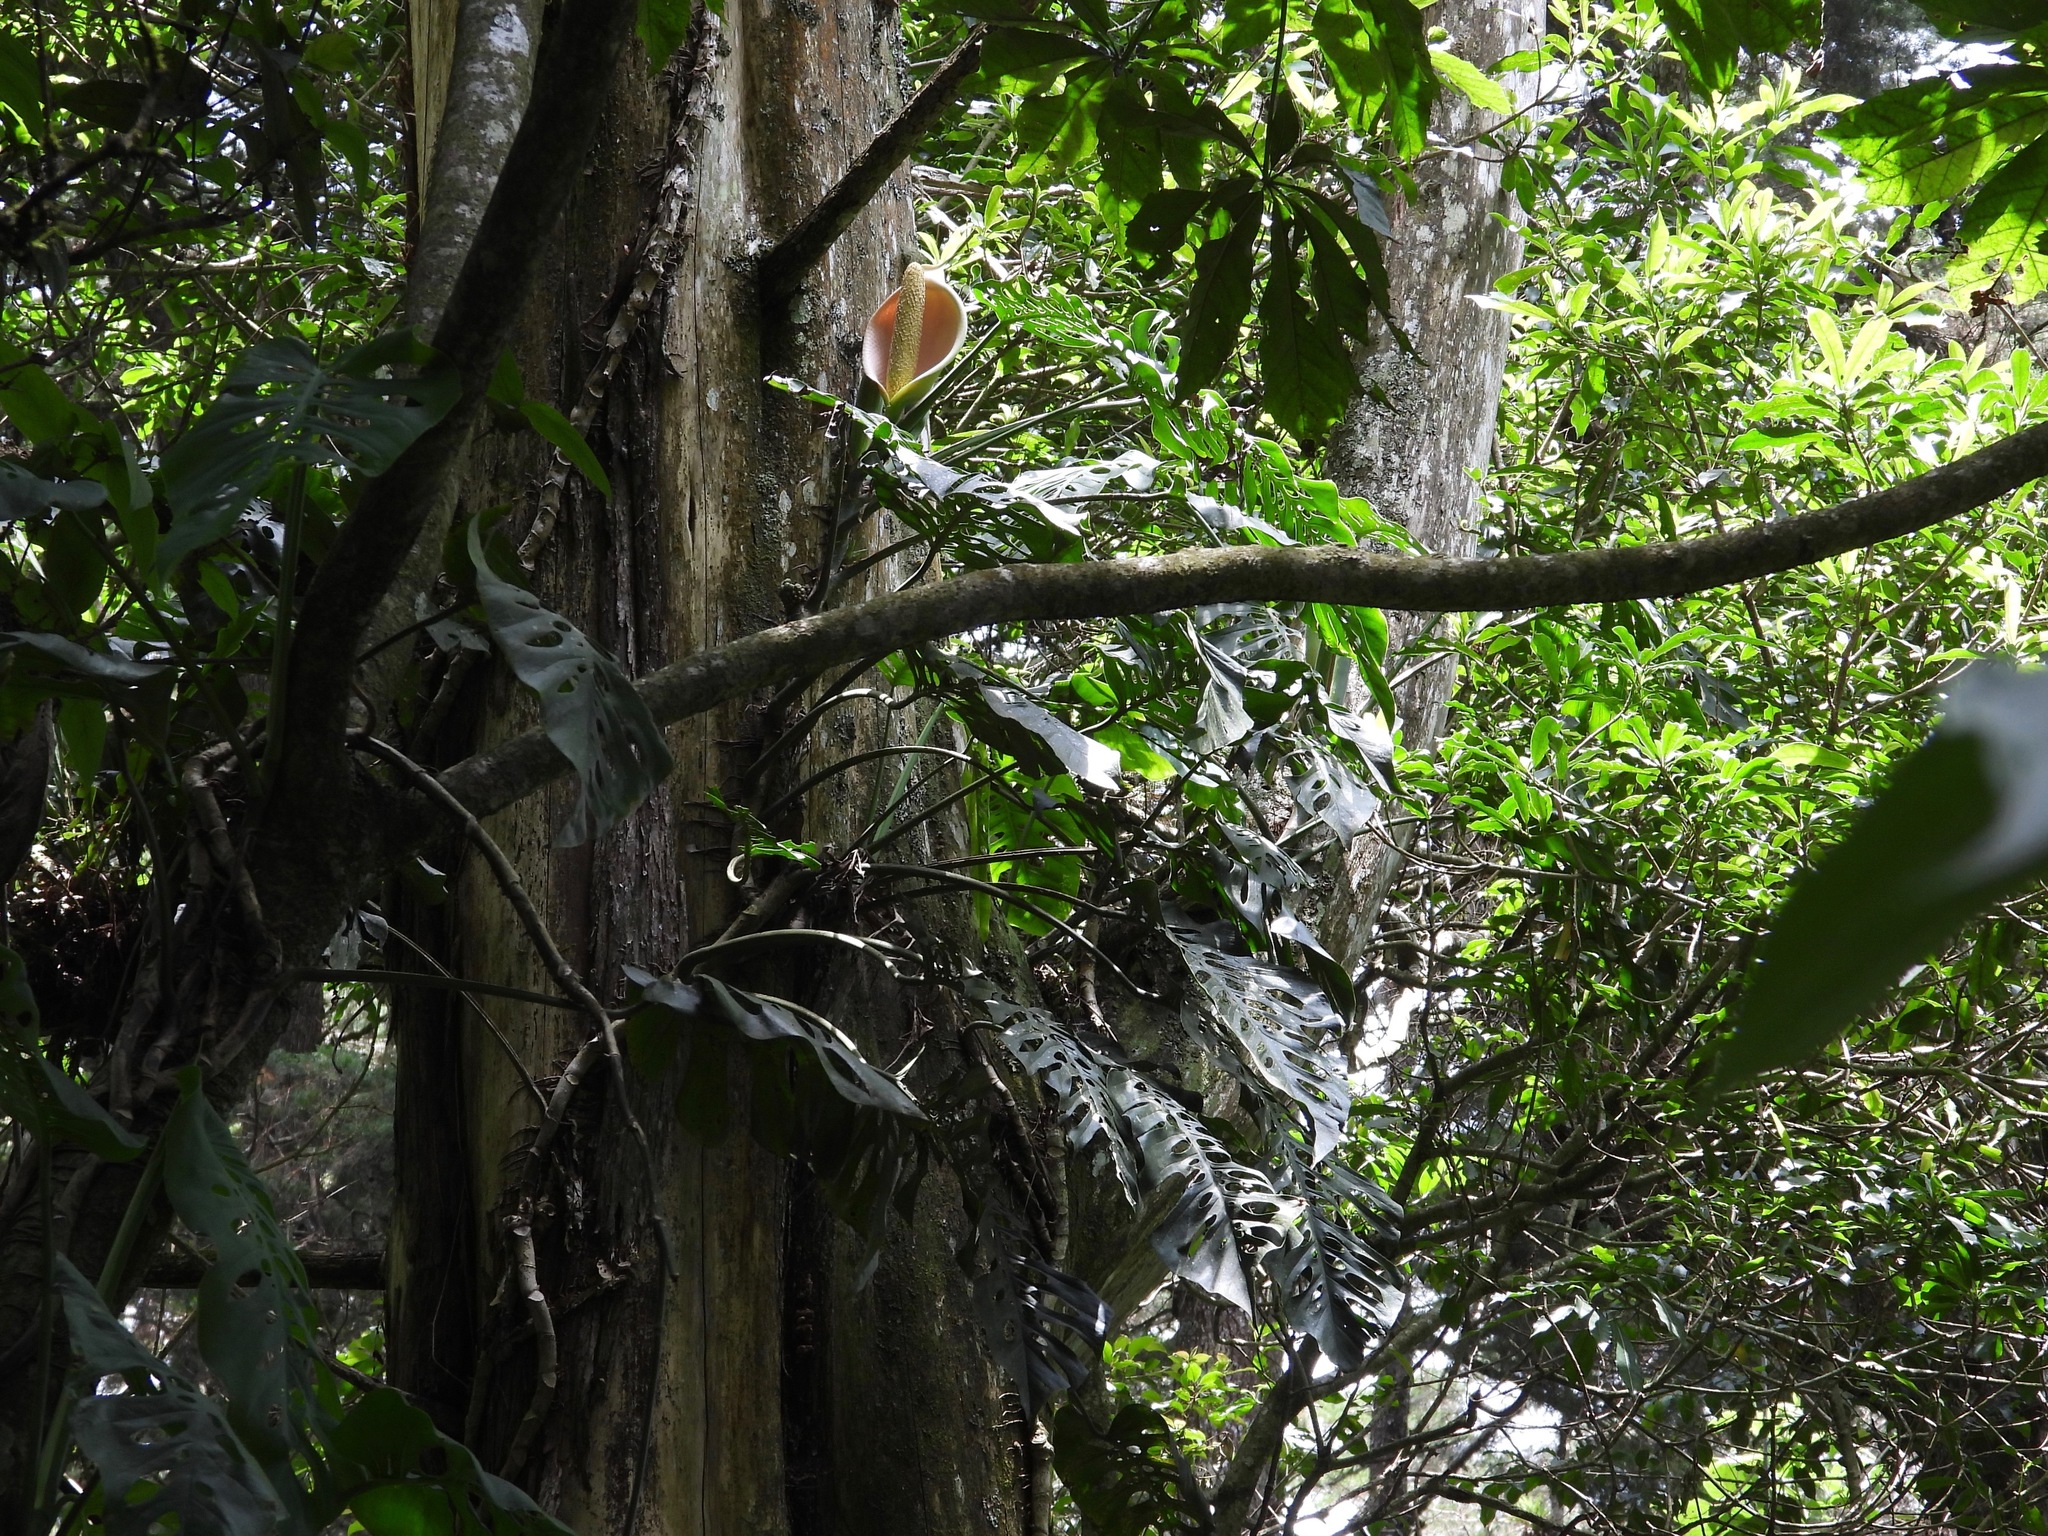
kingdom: Plantae
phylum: Tracheophyta
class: Liliopsida
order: Alismatales
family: Araceae
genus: Monstera
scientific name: Monstera siltepecana
